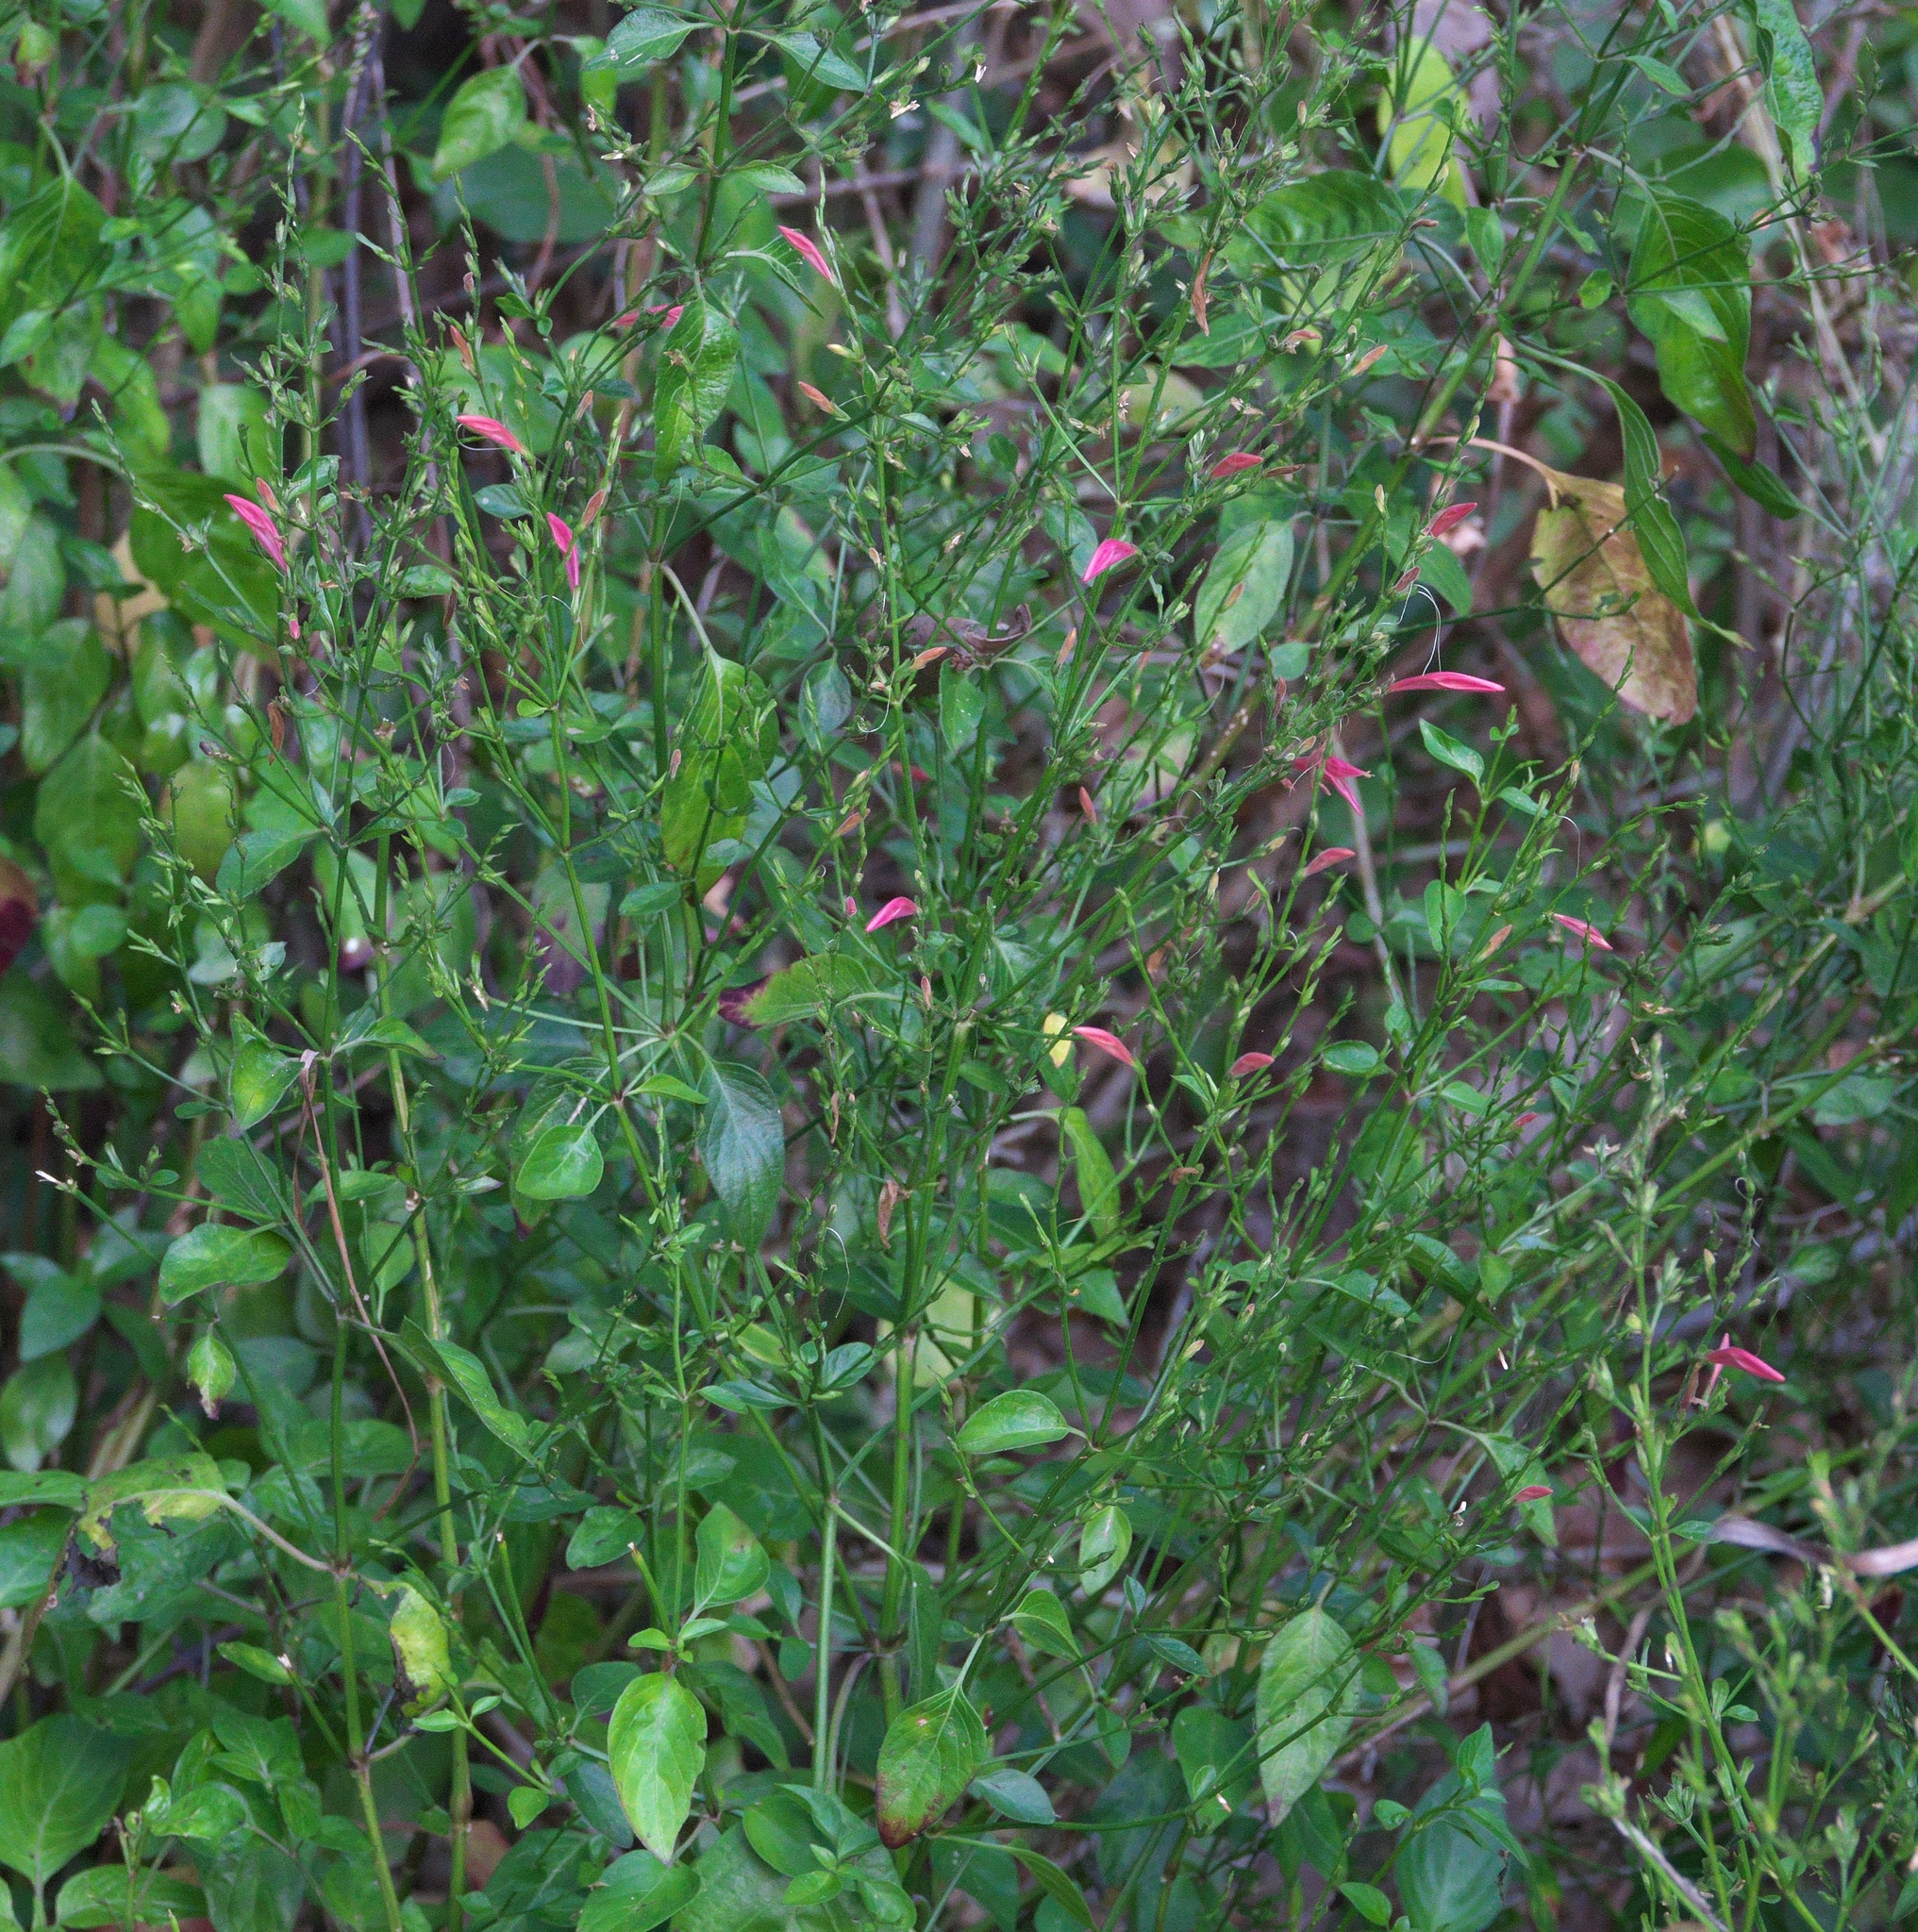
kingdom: Plantae
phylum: Tracheophyta
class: Magnoliopsida
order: Lamiales
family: Acanthaceae
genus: Dicliptera
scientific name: Dicliptera sexangularis
